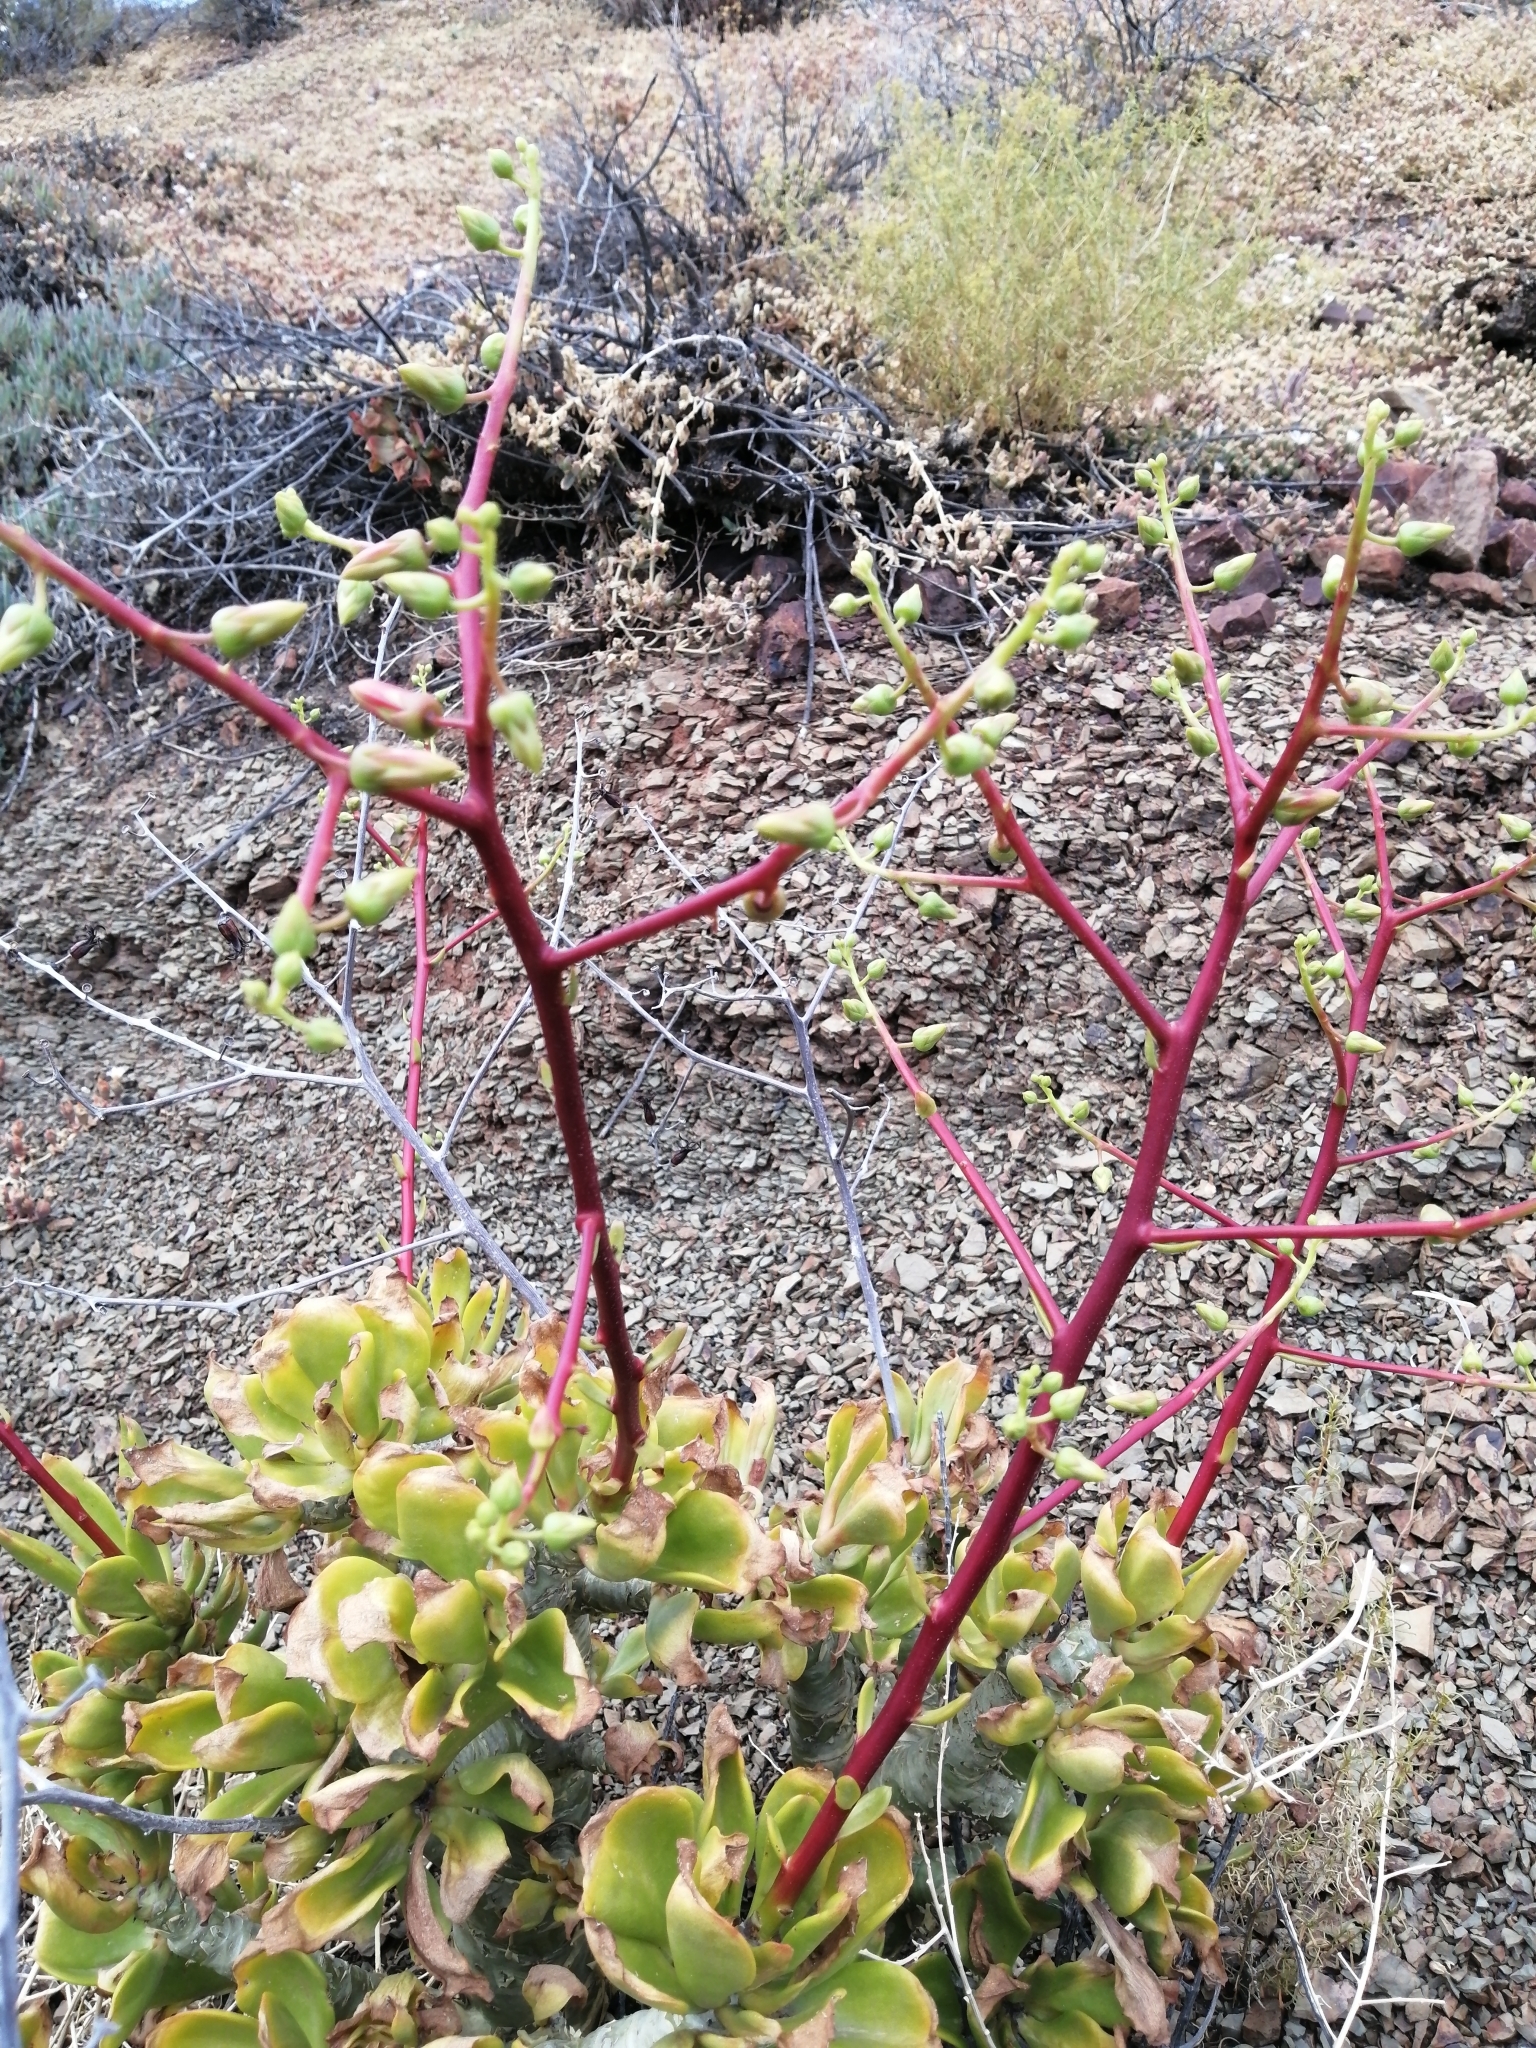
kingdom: Plantae
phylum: Tracheophyta
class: Magnoliopsida
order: Saxifragales
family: Crassulaceae
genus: Tylecodon
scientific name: Tylecodon paniculatus
